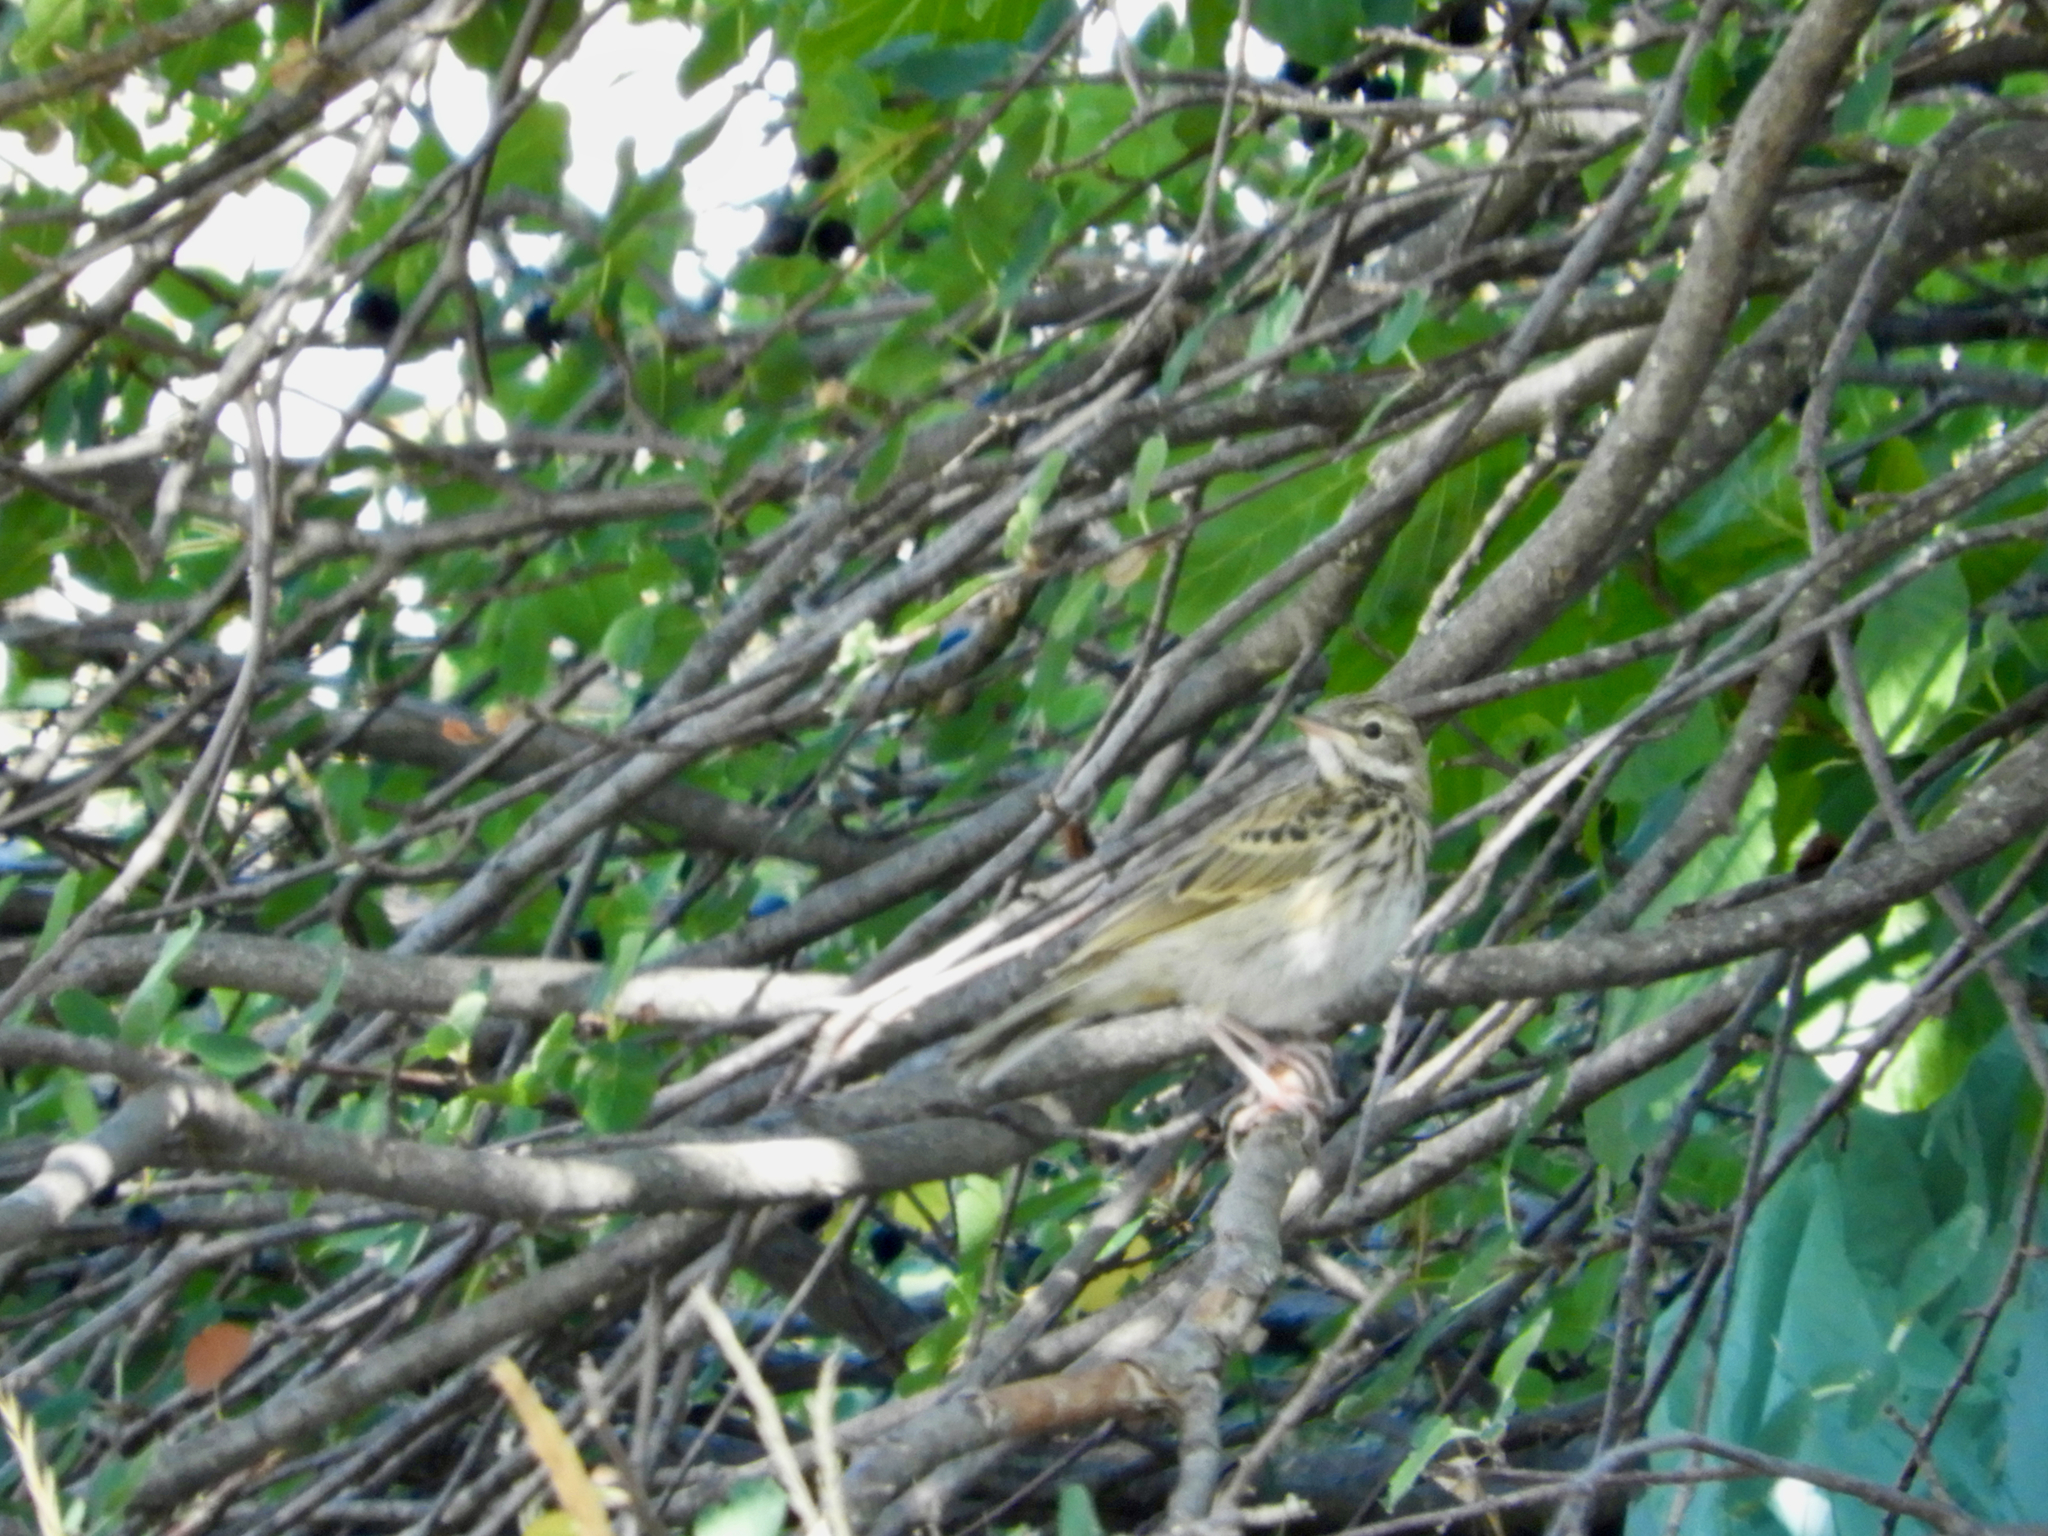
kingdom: Animalia
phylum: Chordata
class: Aves
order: Passeriformes
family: Motacillidae
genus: Anthus
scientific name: Anthus trivialis
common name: Tree pipit
